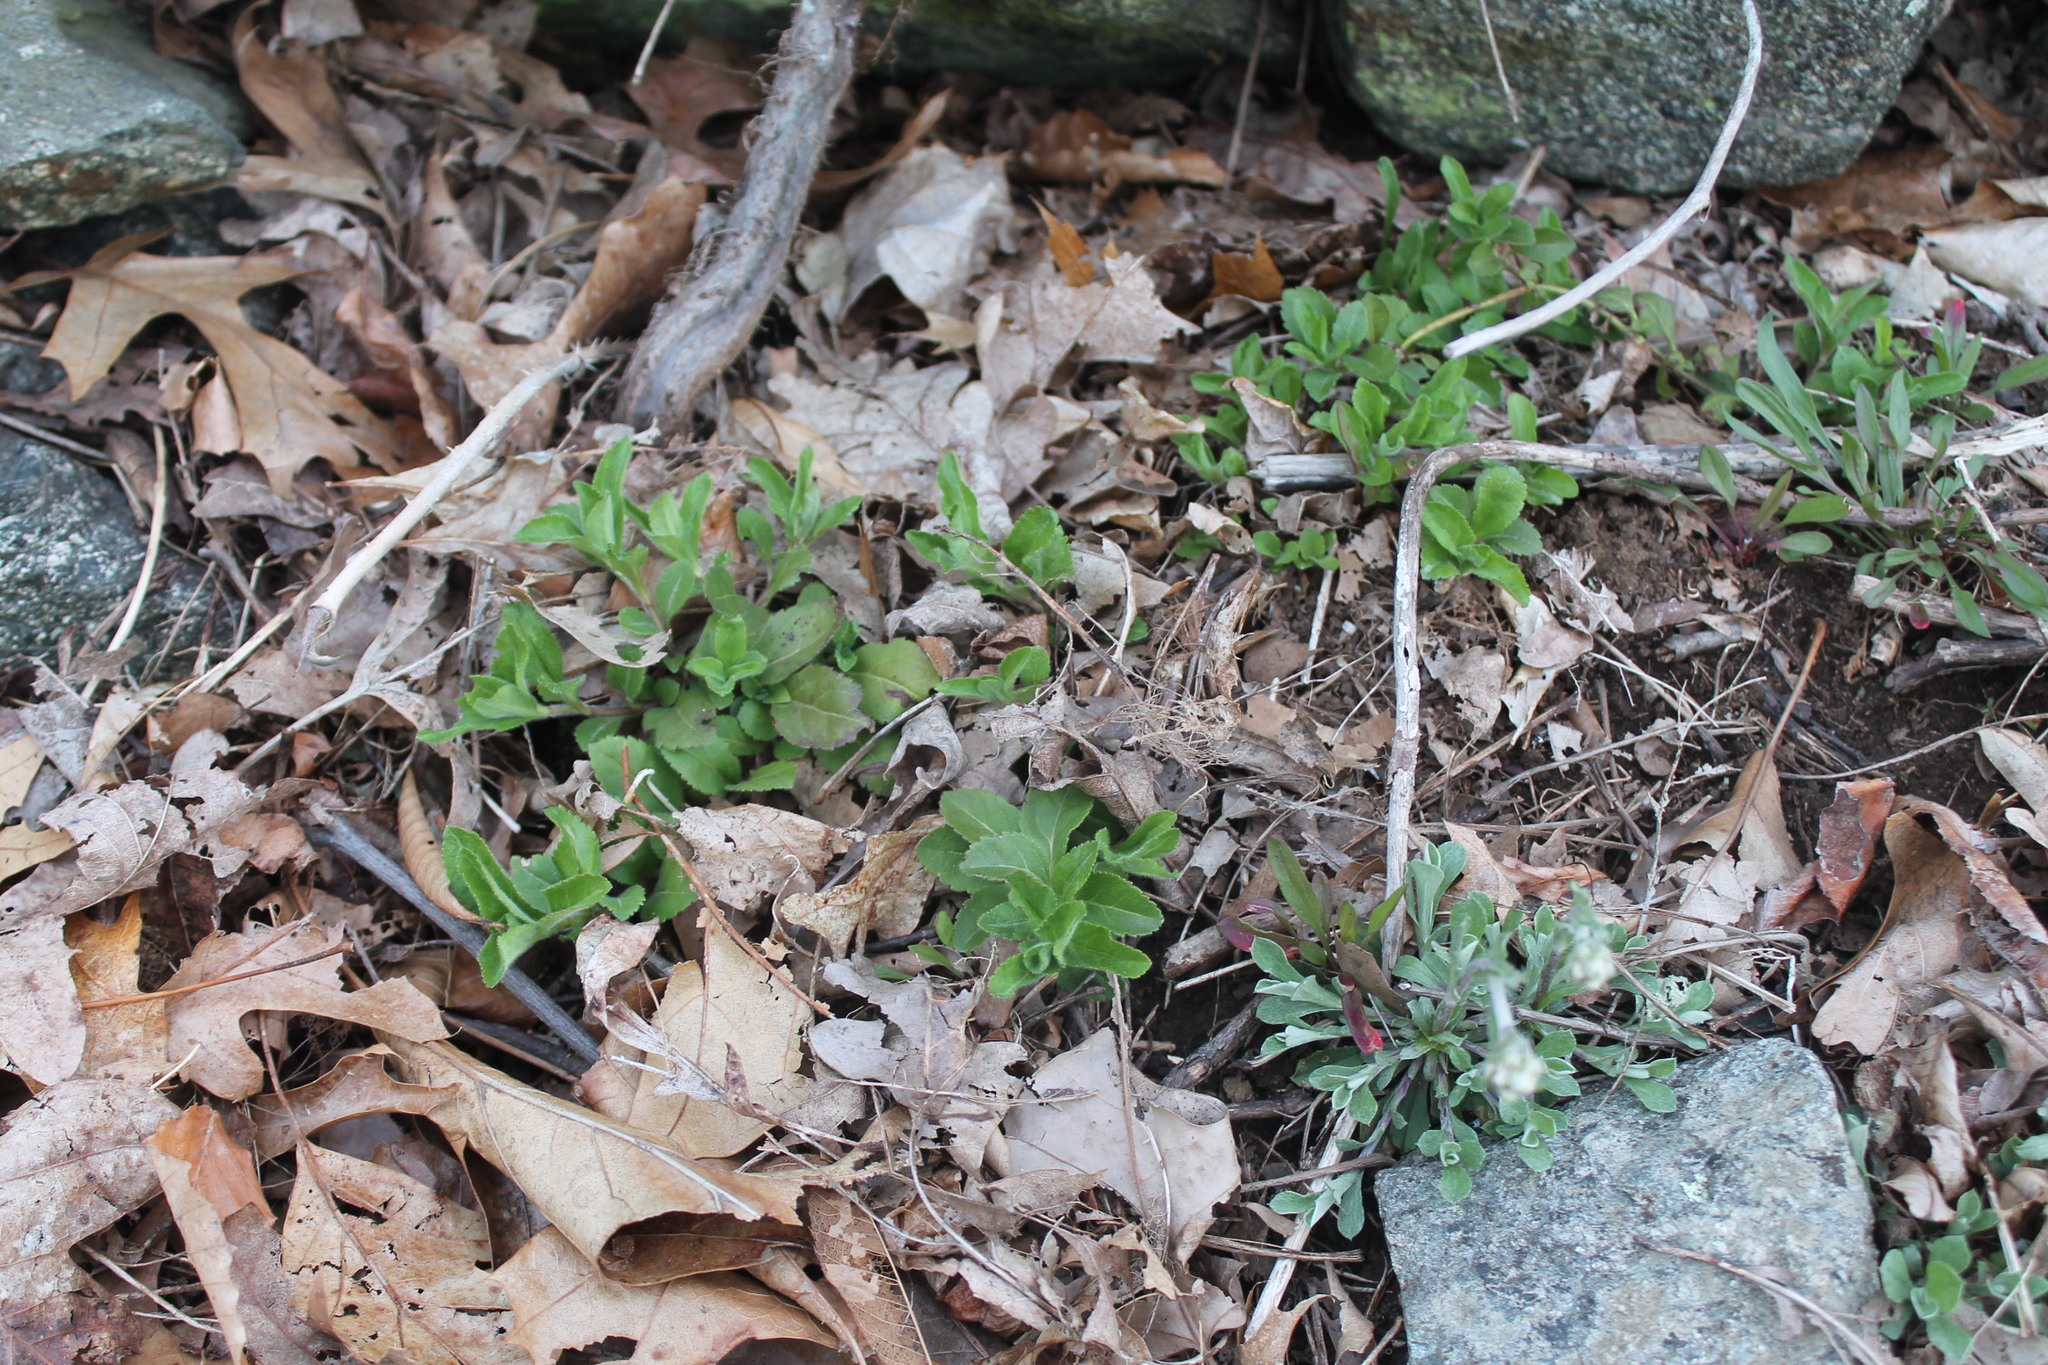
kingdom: Plantae
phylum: Tracheophyta
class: Magnoliopsida
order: Lamiales
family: Plantaginaceae
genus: Veronica
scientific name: Veronica officinalis
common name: Common speedwell
